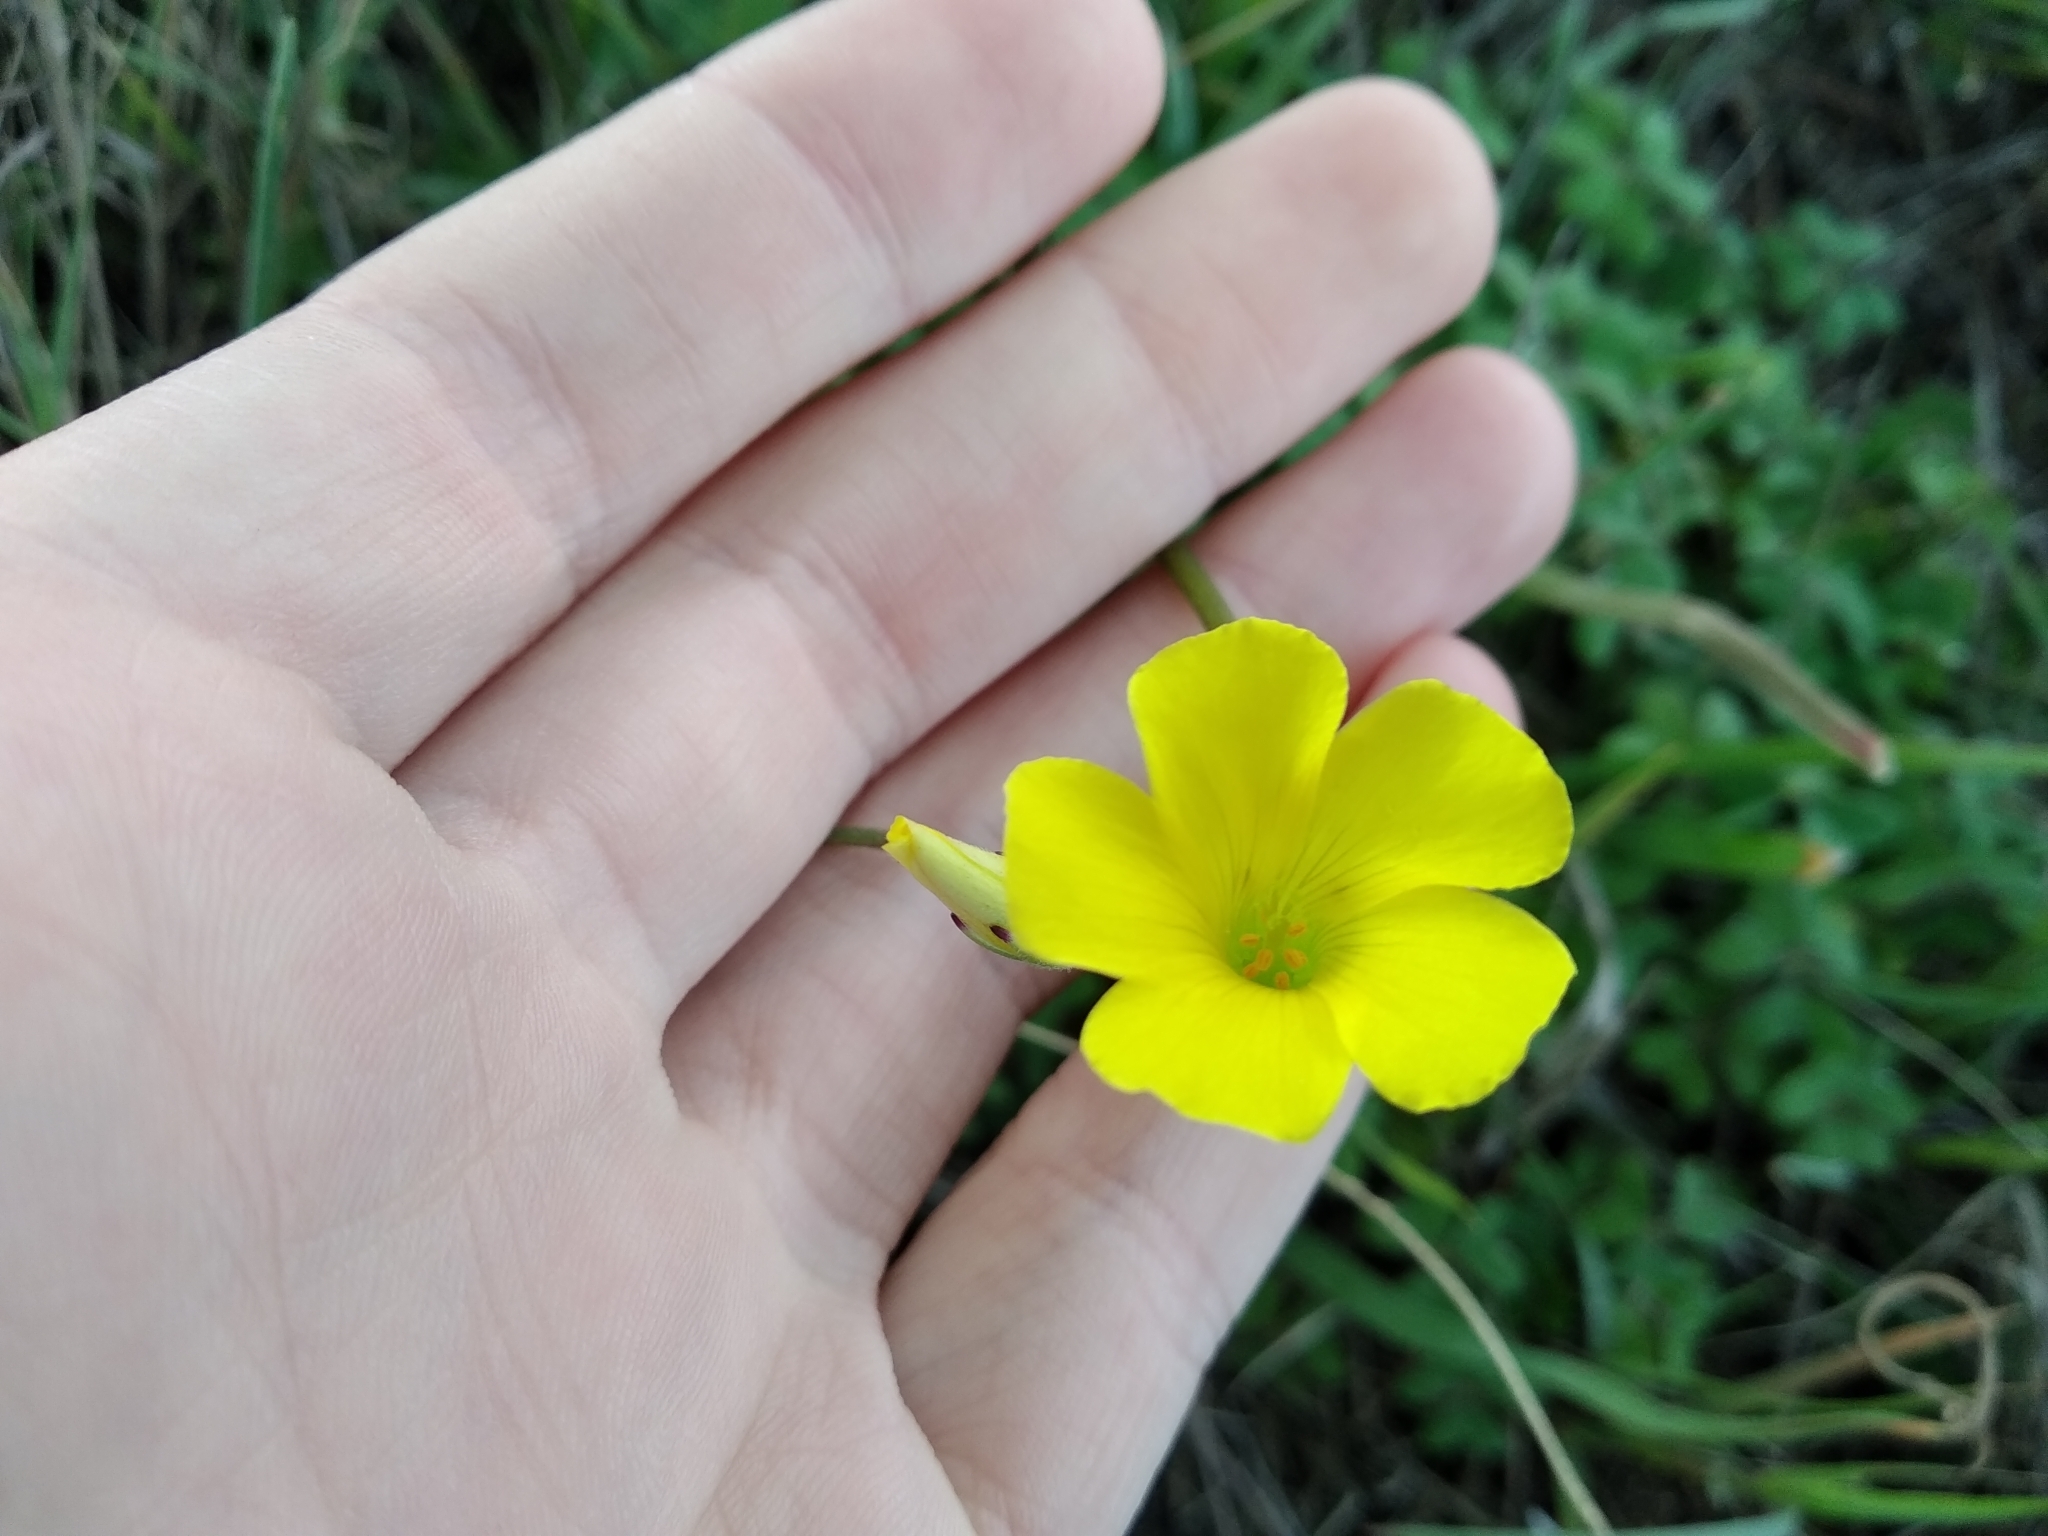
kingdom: Plantae
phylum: Tracheophyta
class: Magnoliopsida
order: Oxalidales
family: Oxalidaceae
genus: Oxalis
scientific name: Oxalis pes-caprae
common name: Bermuda-buttercup
